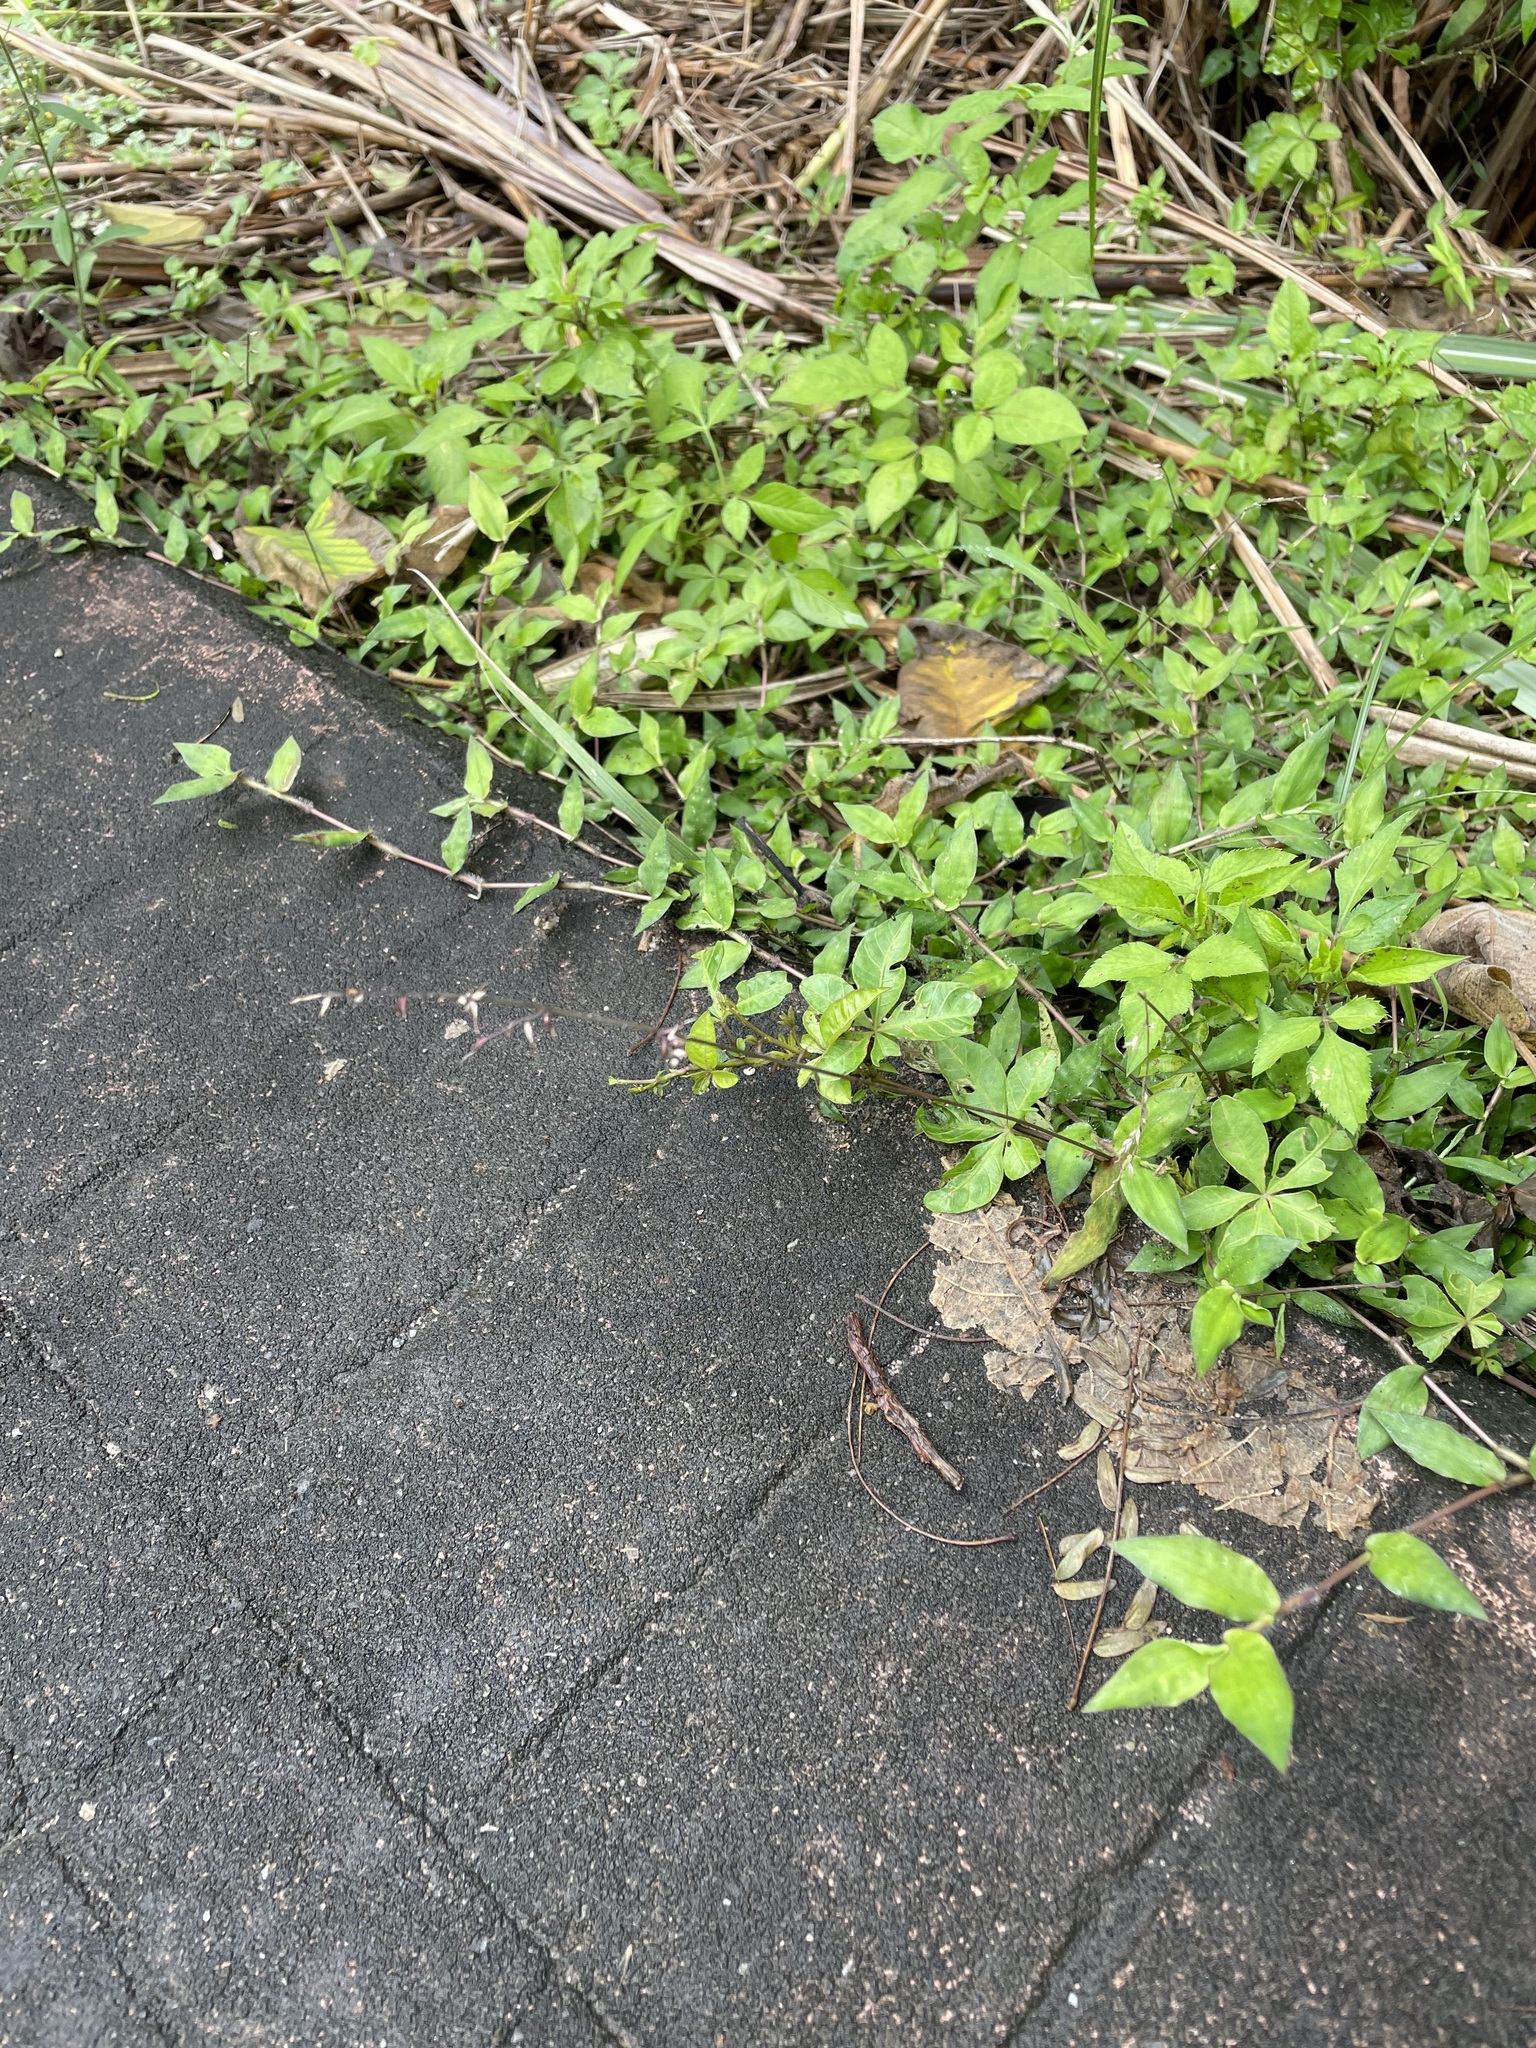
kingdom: Plantae
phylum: Tracheophyta
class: Liliopsida
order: Poales
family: Poaceae
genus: Oplismenus
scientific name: Oplismenus compositus
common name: Running mountain grass
